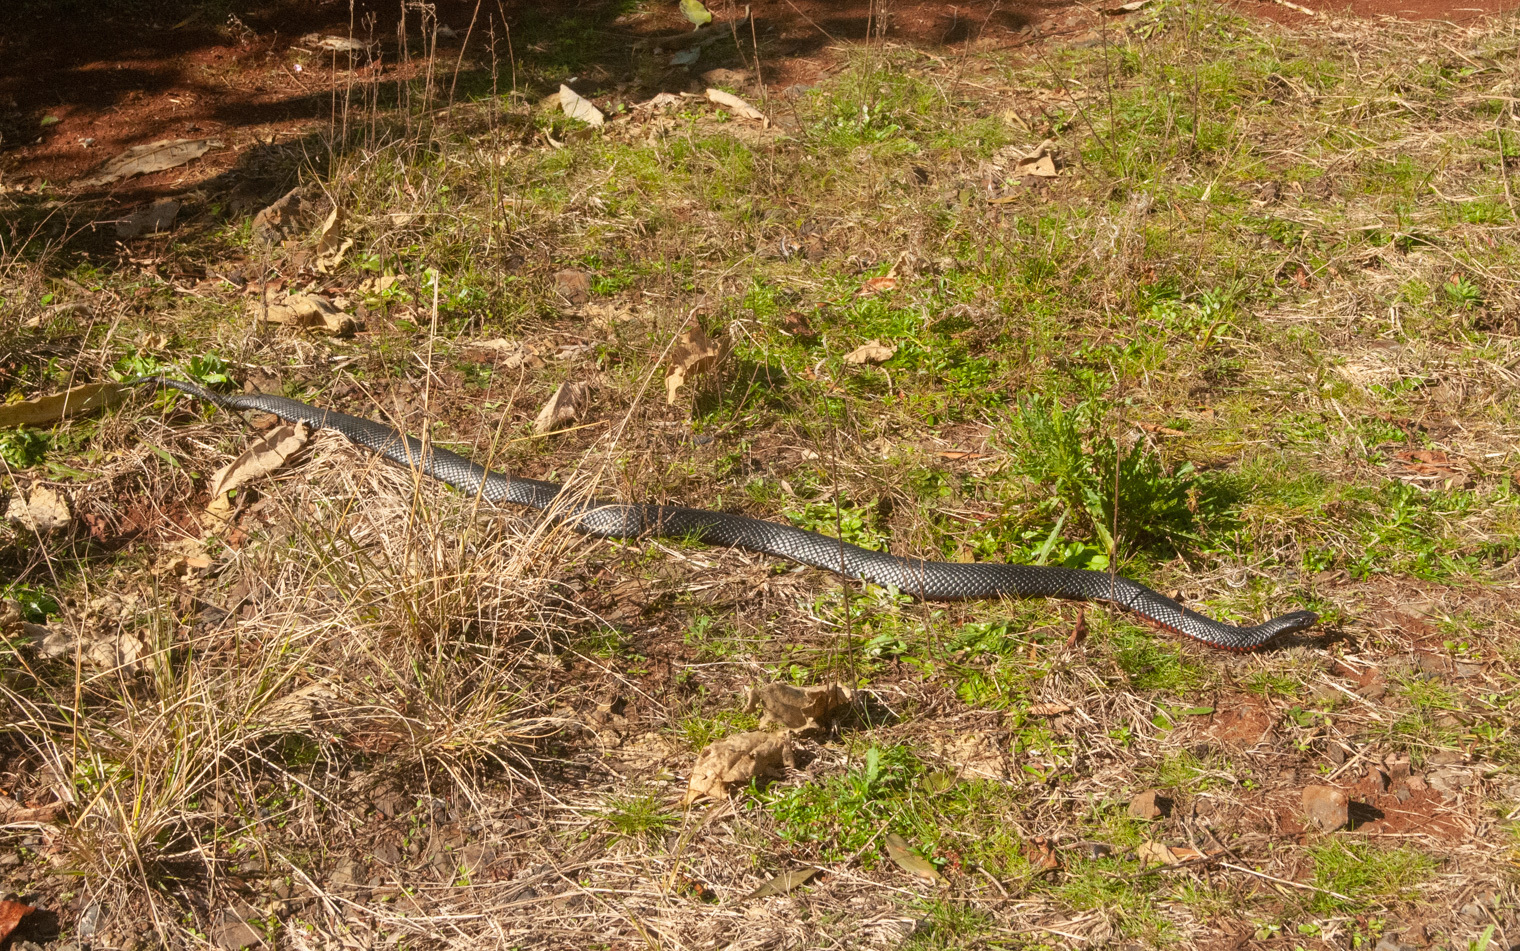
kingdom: Animalia
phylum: Chordata
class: Squamata
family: Elapidae
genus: Pseudechis
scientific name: Pseudechis porphyriacus
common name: Australian black snake
